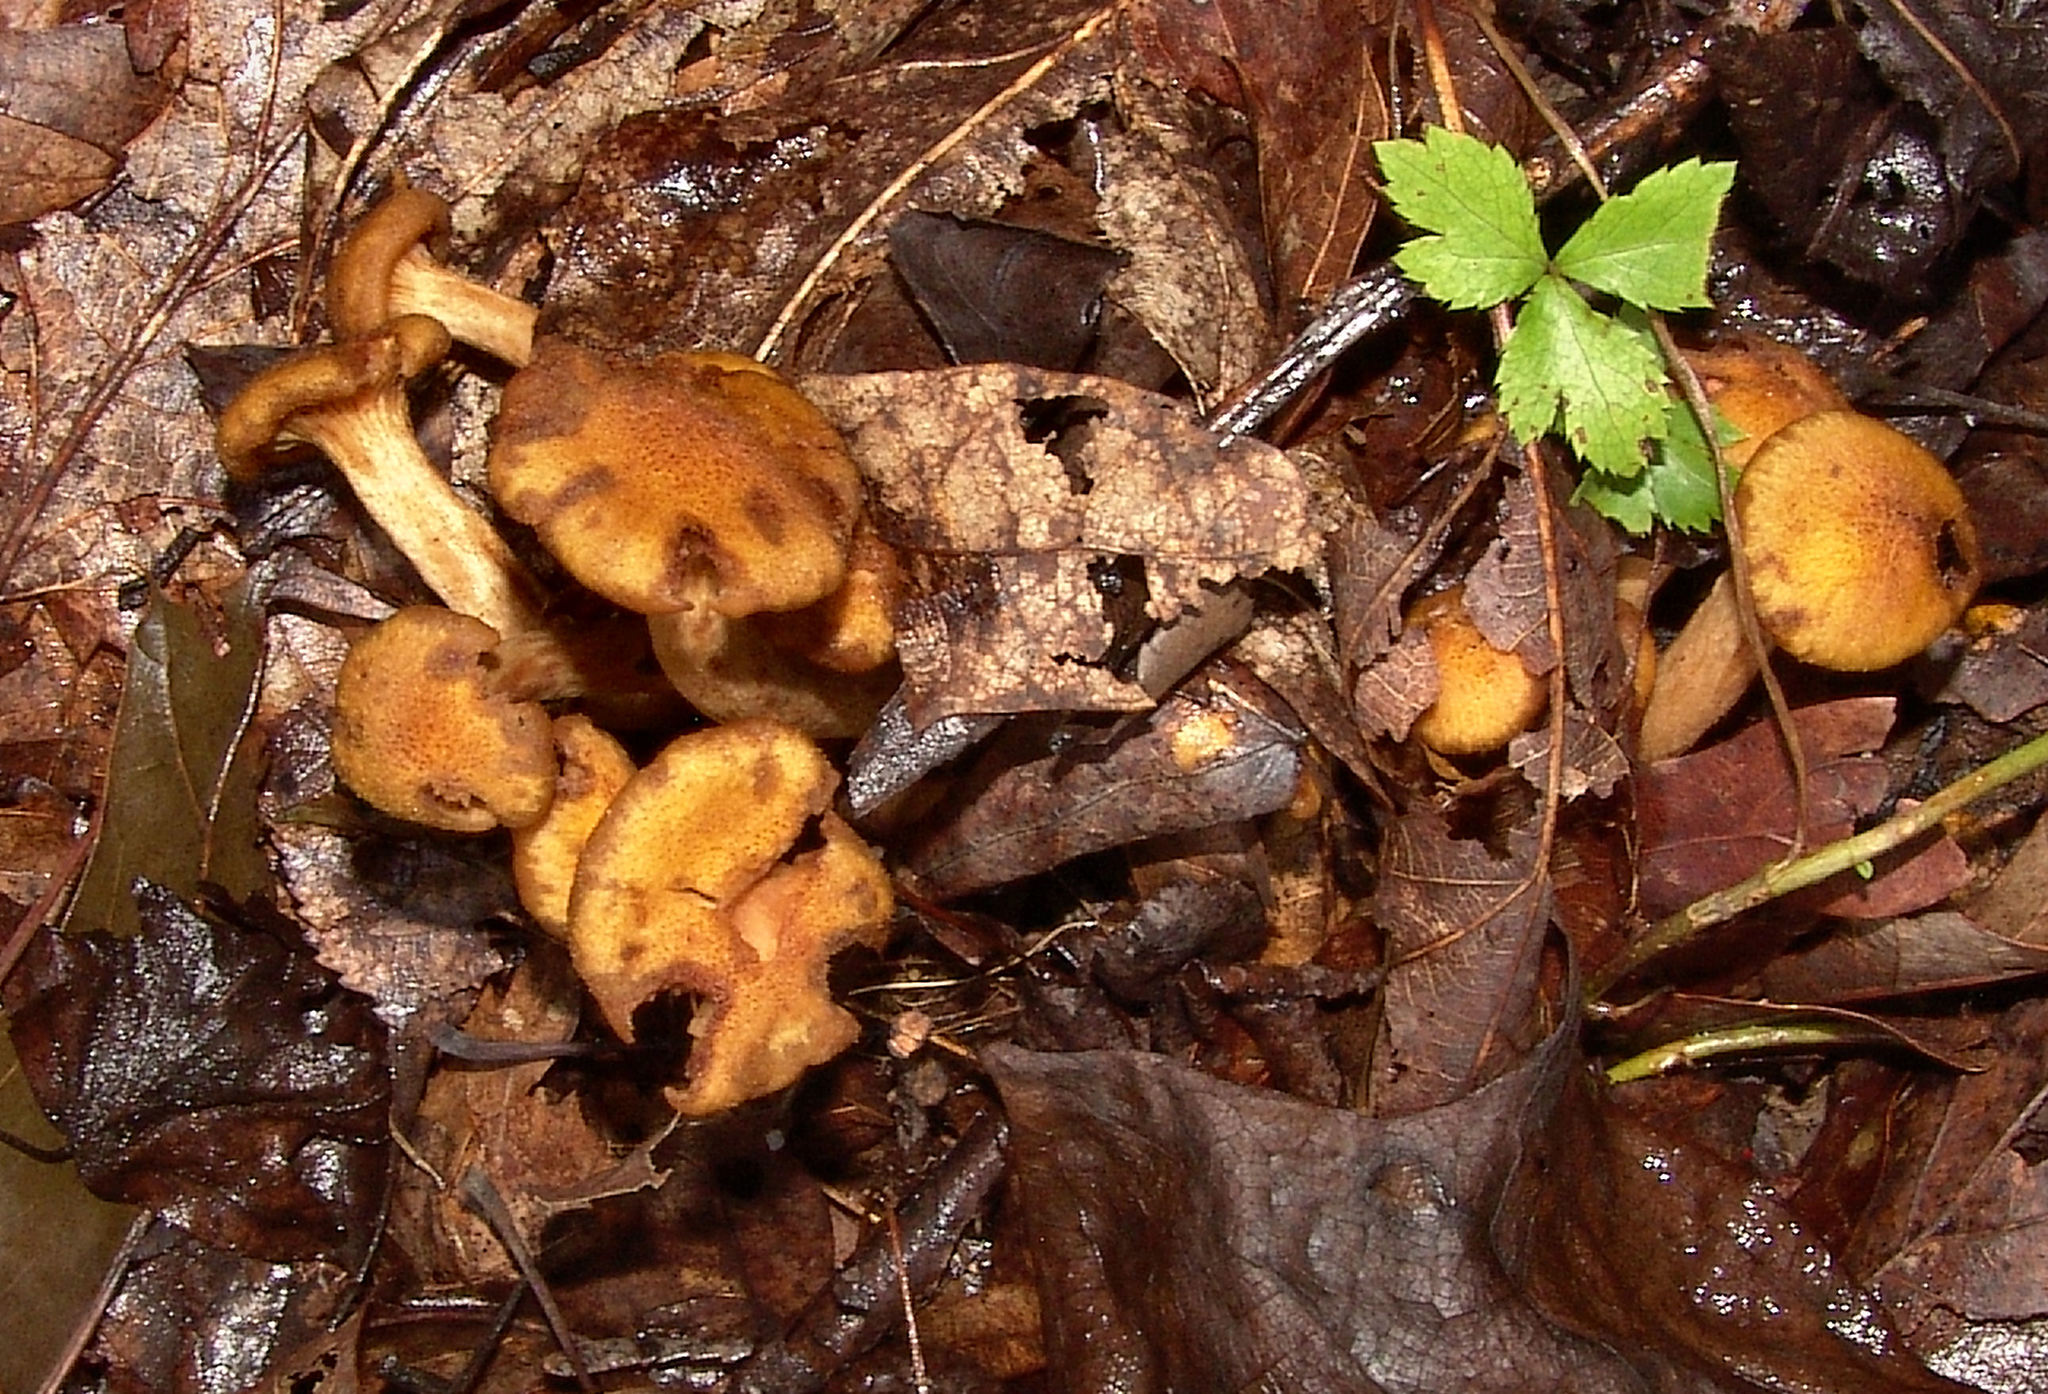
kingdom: Fungi
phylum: Basidiomycota
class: Agaricomycetes
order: Agaricales
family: Physalacriaceae
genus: Desarmillaria
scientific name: Desarmillaria caespitosa
